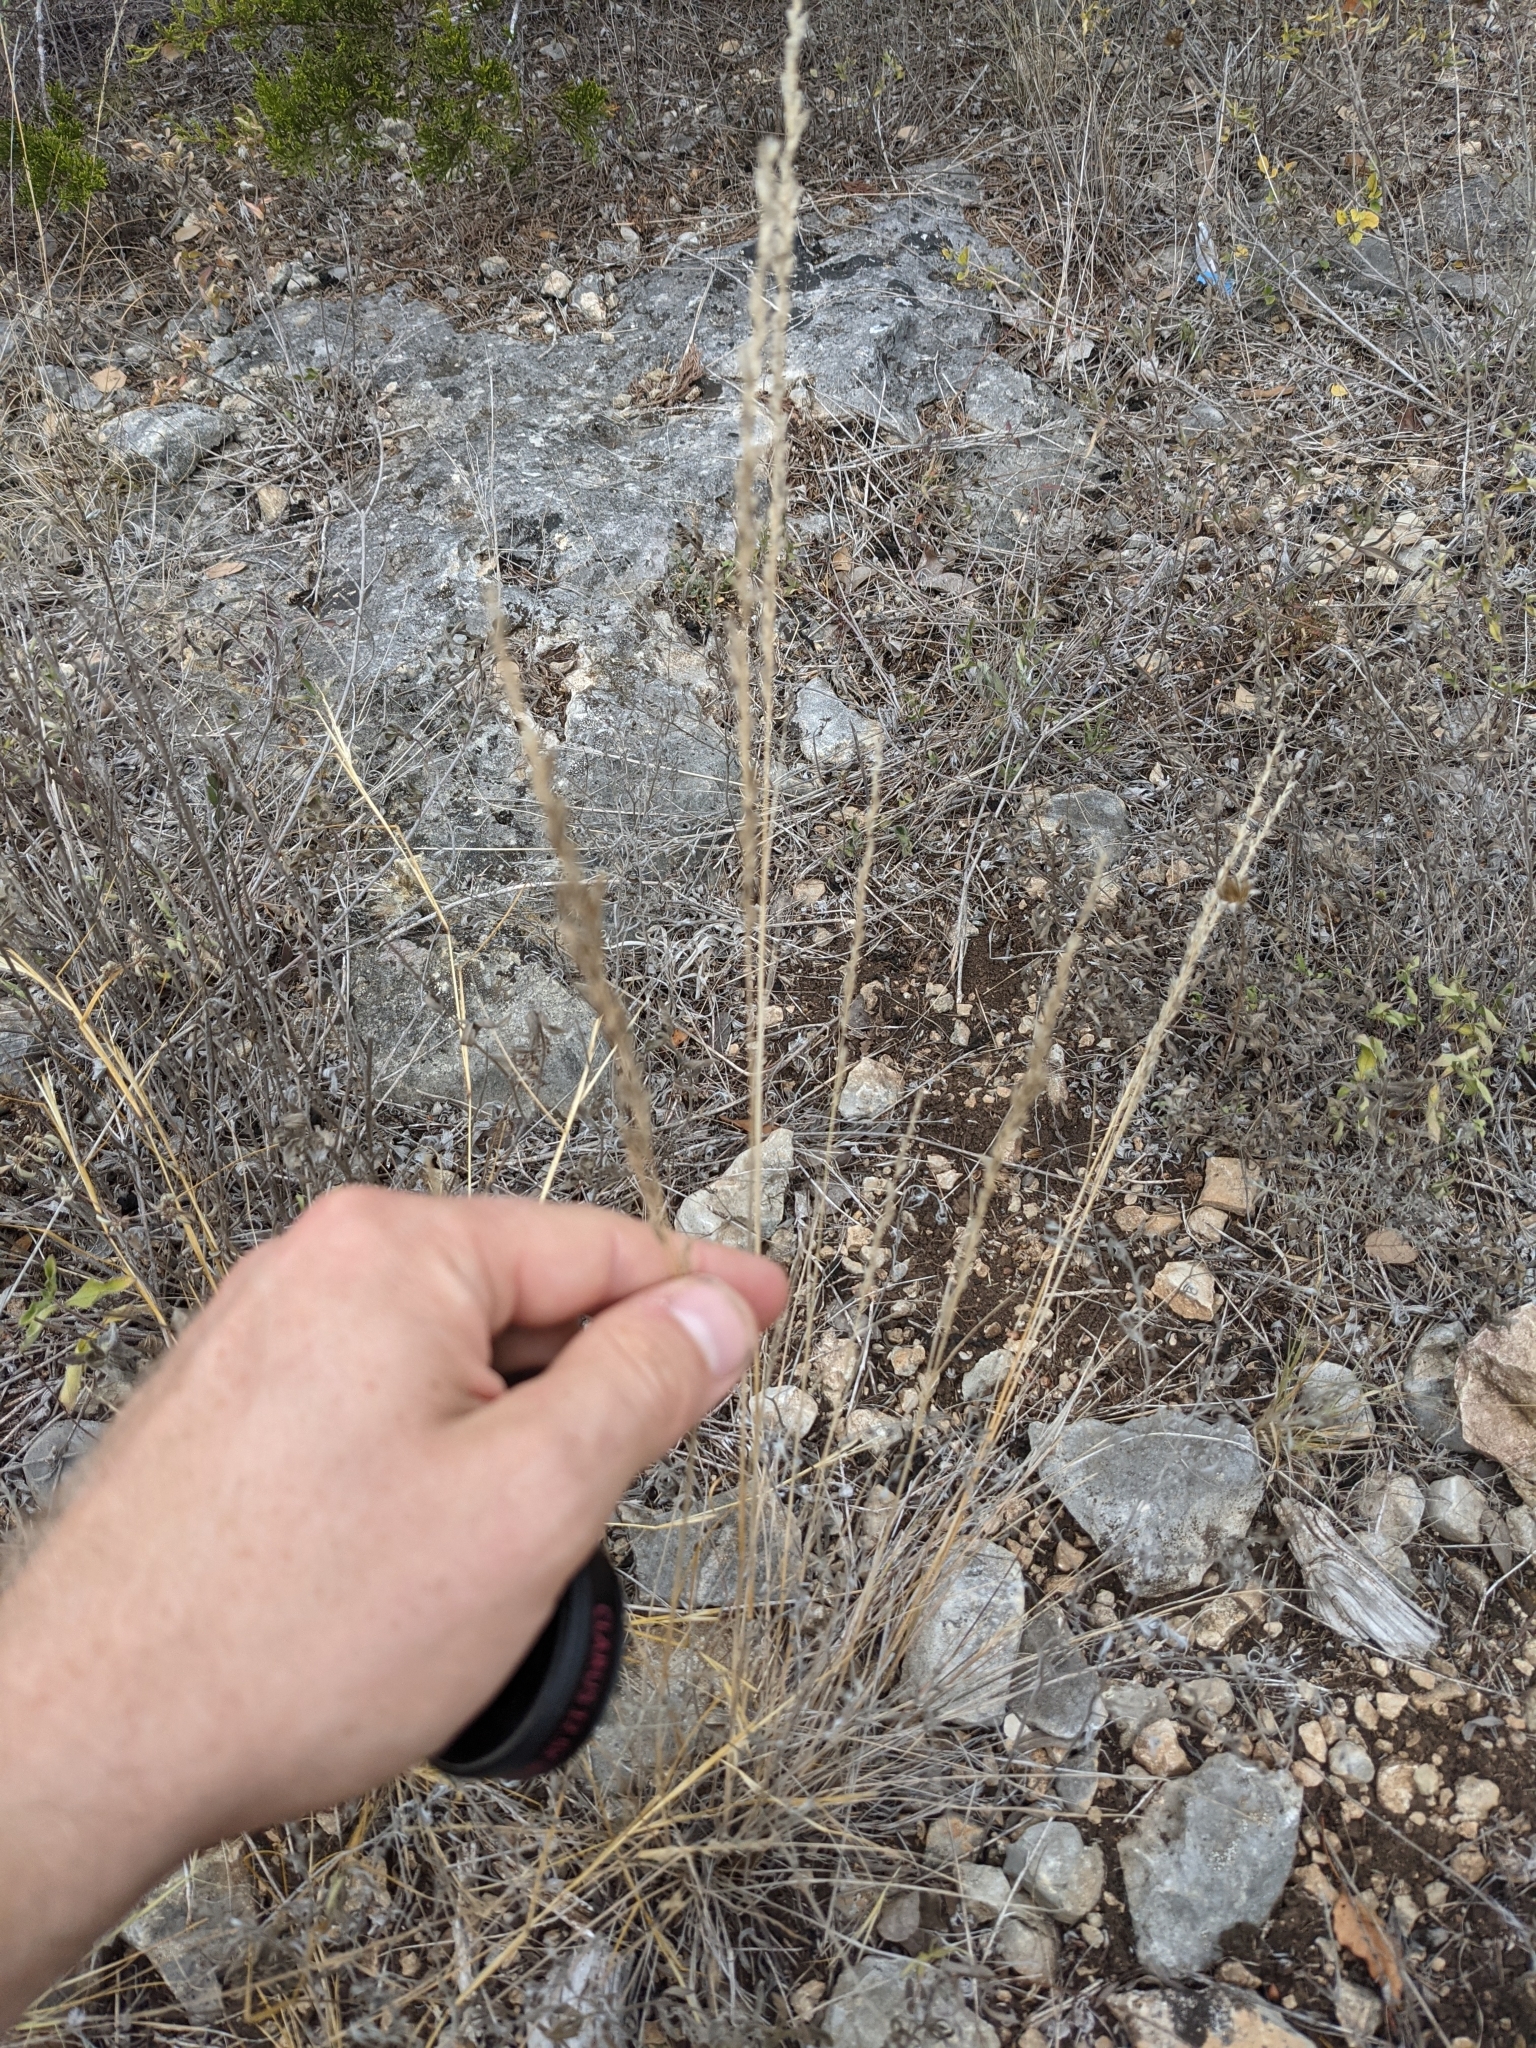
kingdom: Plantae
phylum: Tracheophyta
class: Liliopsida
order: Poales
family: Poaceae
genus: Tridentopsis
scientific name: Tridentopsis mutica
